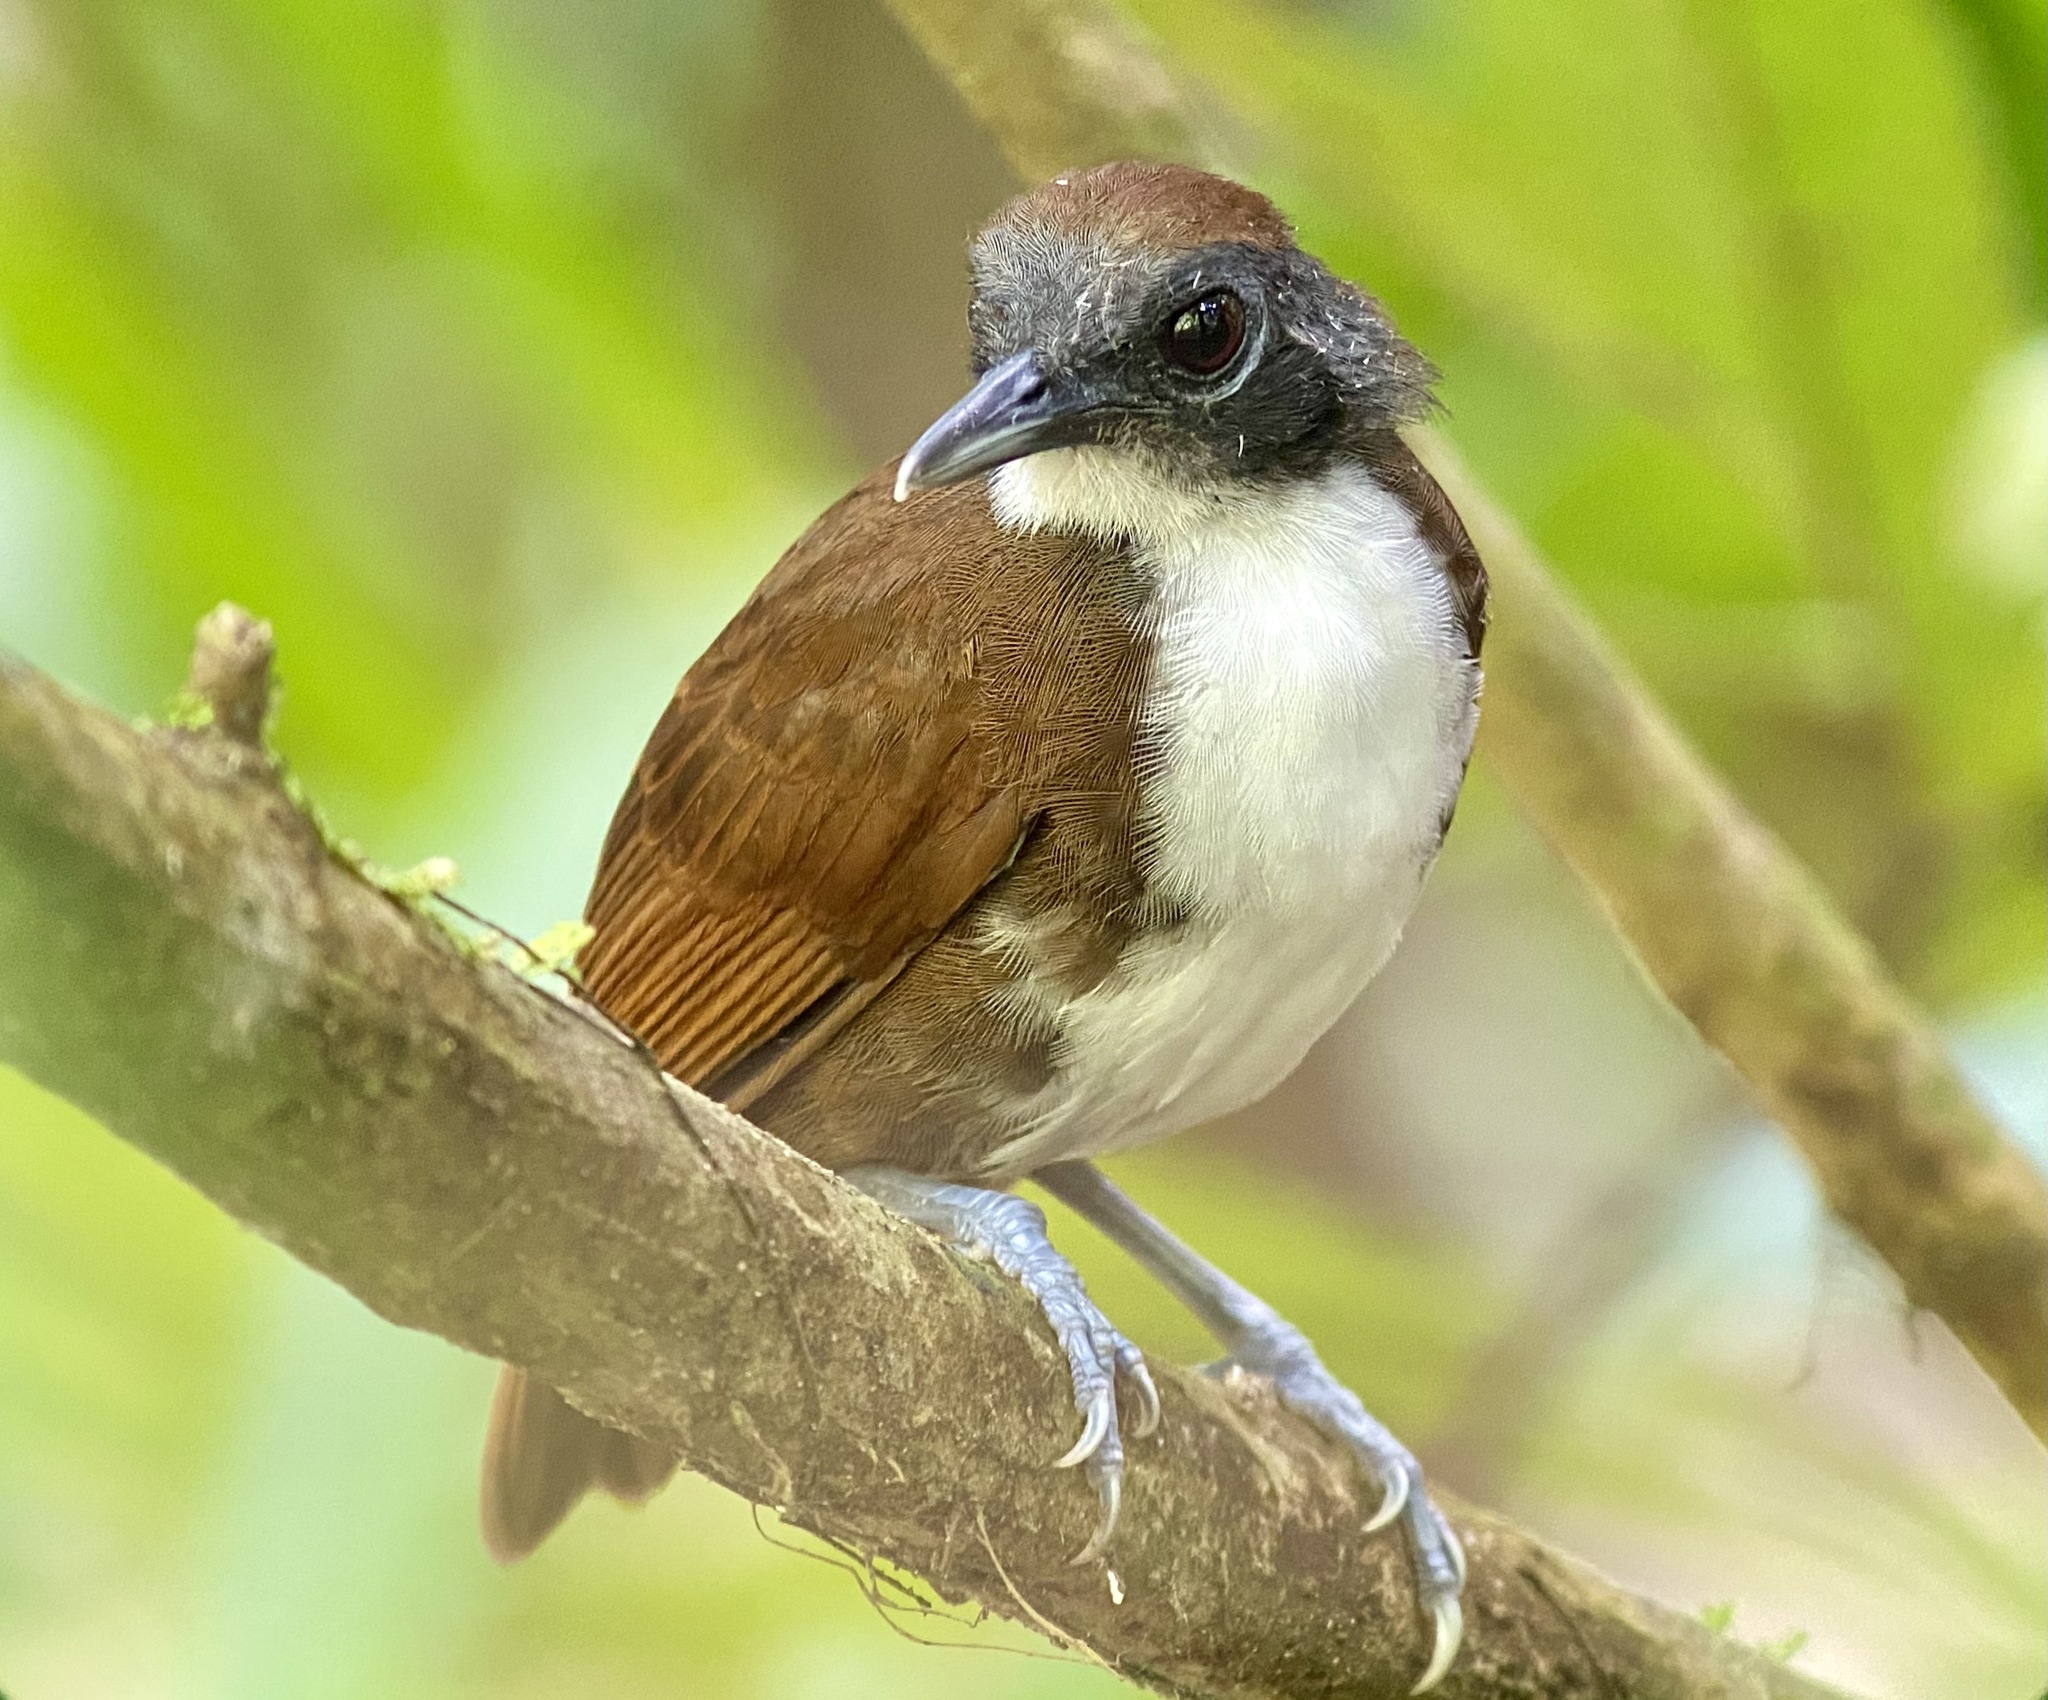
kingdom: Animalia
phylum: Chordata
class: Aves
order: Passeriformes
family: Thamnophilidae
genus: Gymnopithys
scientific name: Gymnopithys leucaspis
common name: White-cheeked antbird
